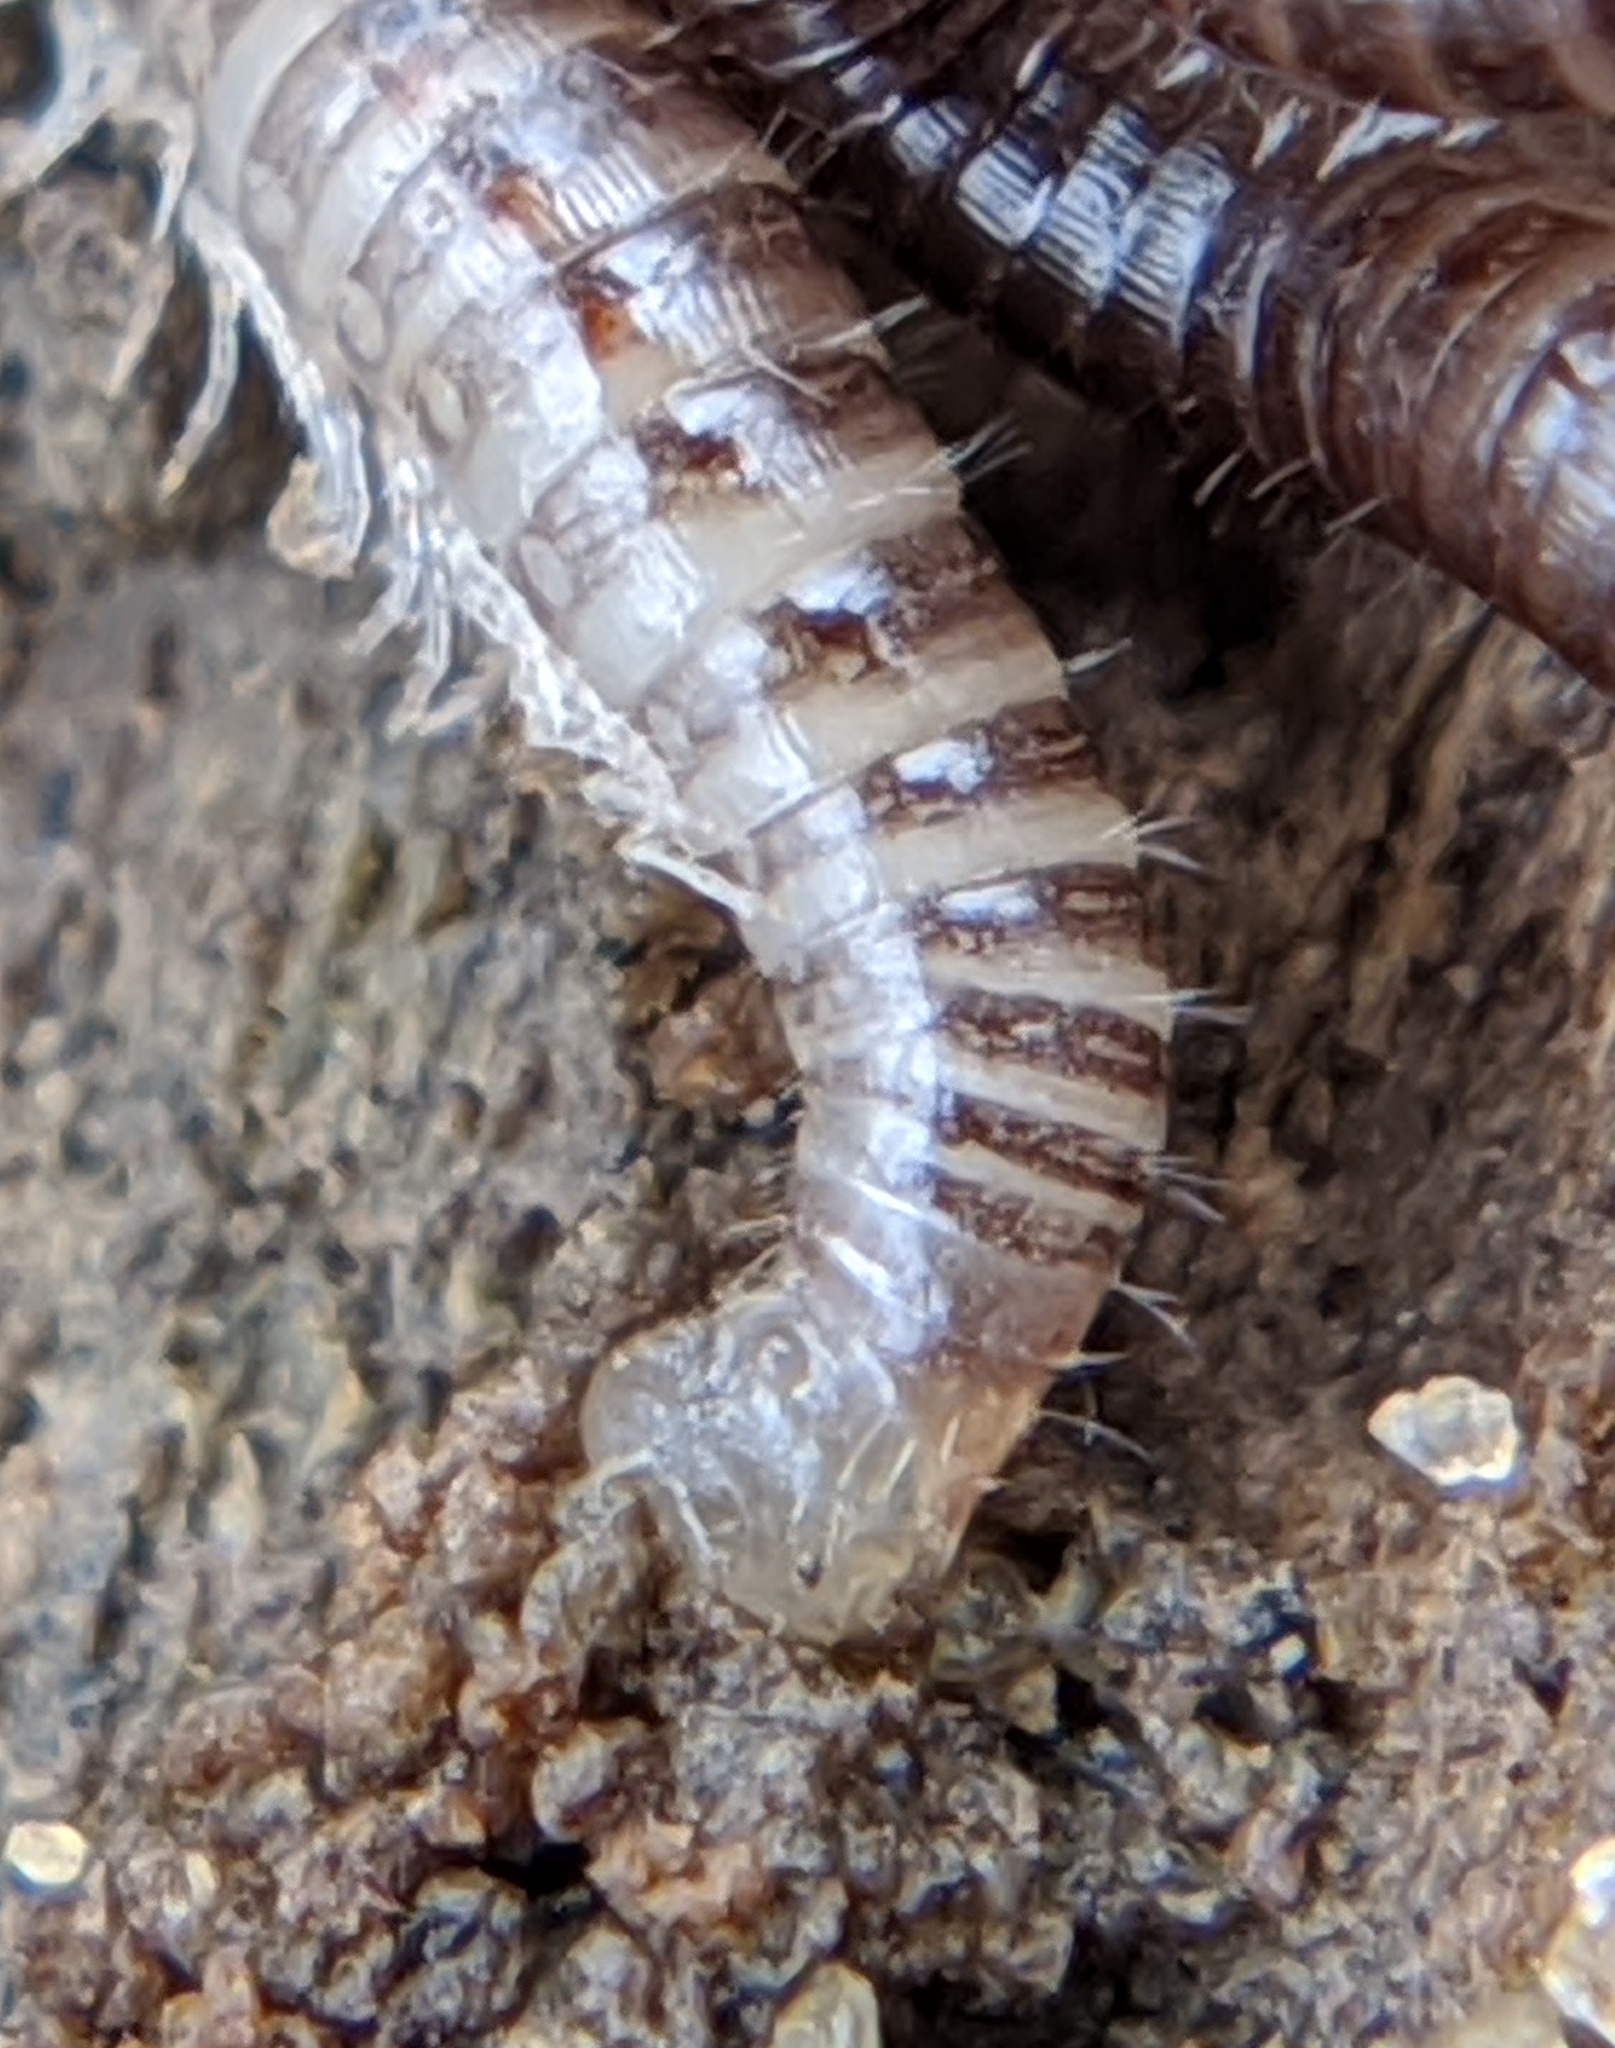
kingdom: Animalia
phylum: Arthropoda
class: Diplopoda
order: Julida
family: Julidae
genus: Ophyiulus
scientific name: Ophyiulus pilosus
